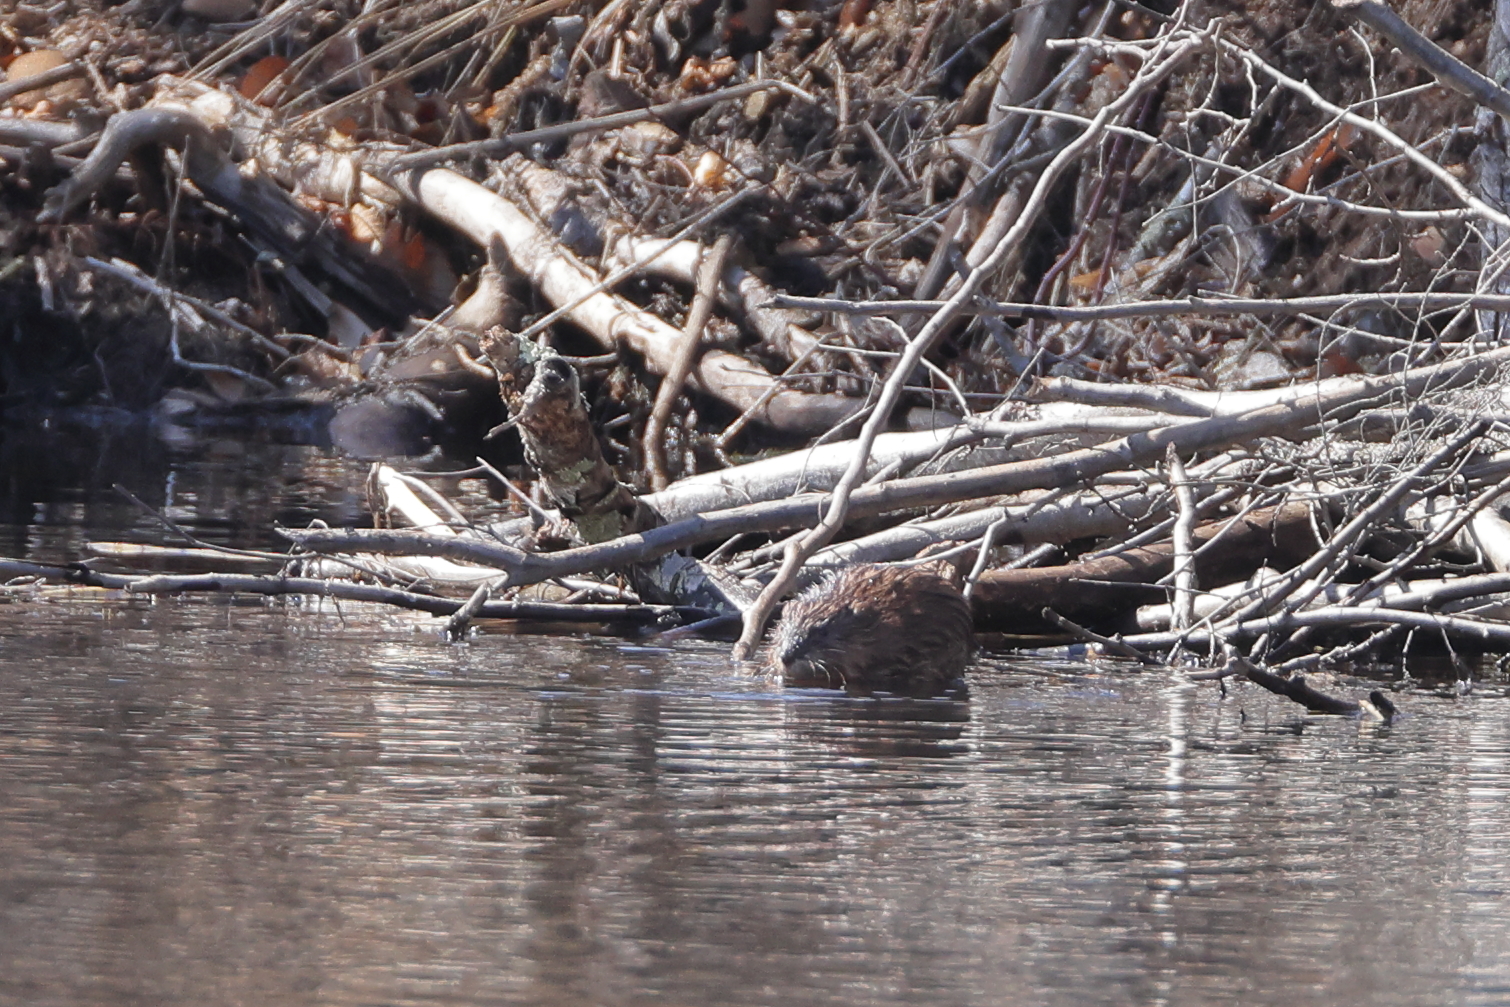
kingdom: Animalia
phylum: Chordata
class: Mammalia
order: Rodentia
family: Cricetidae
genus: Ondatra
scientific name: Ondatra zibethicus
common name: Muskrat
